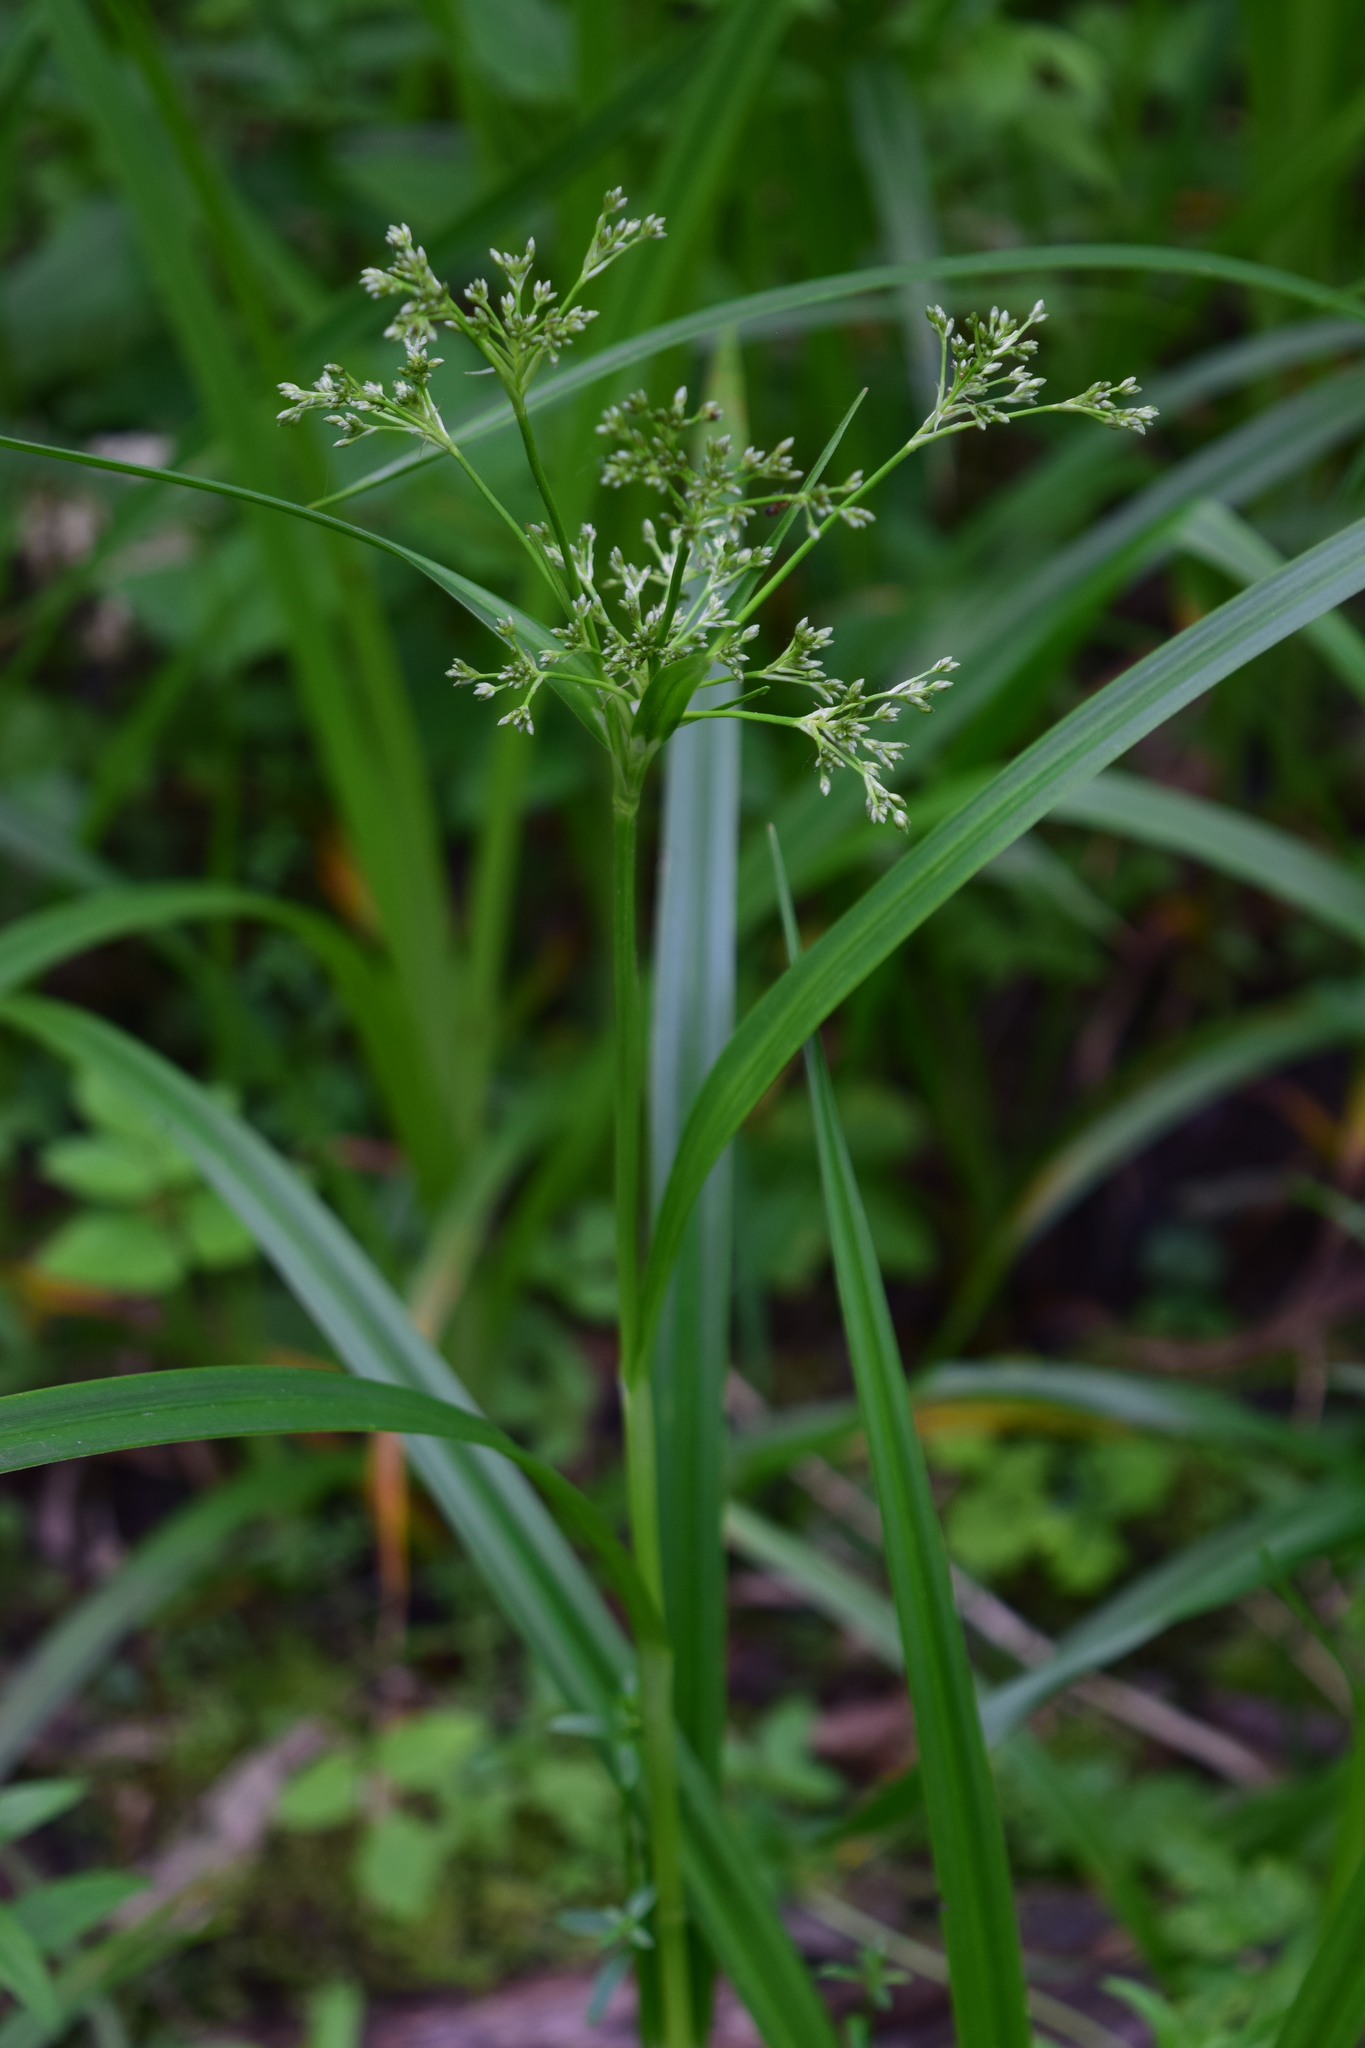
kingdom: Plantae
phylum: Tracheophyta
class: Liliopsida
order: Poales
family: Cyperaceae
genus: Scirpus
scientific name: Scirpus sylvaticus
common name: Wood club-rush
